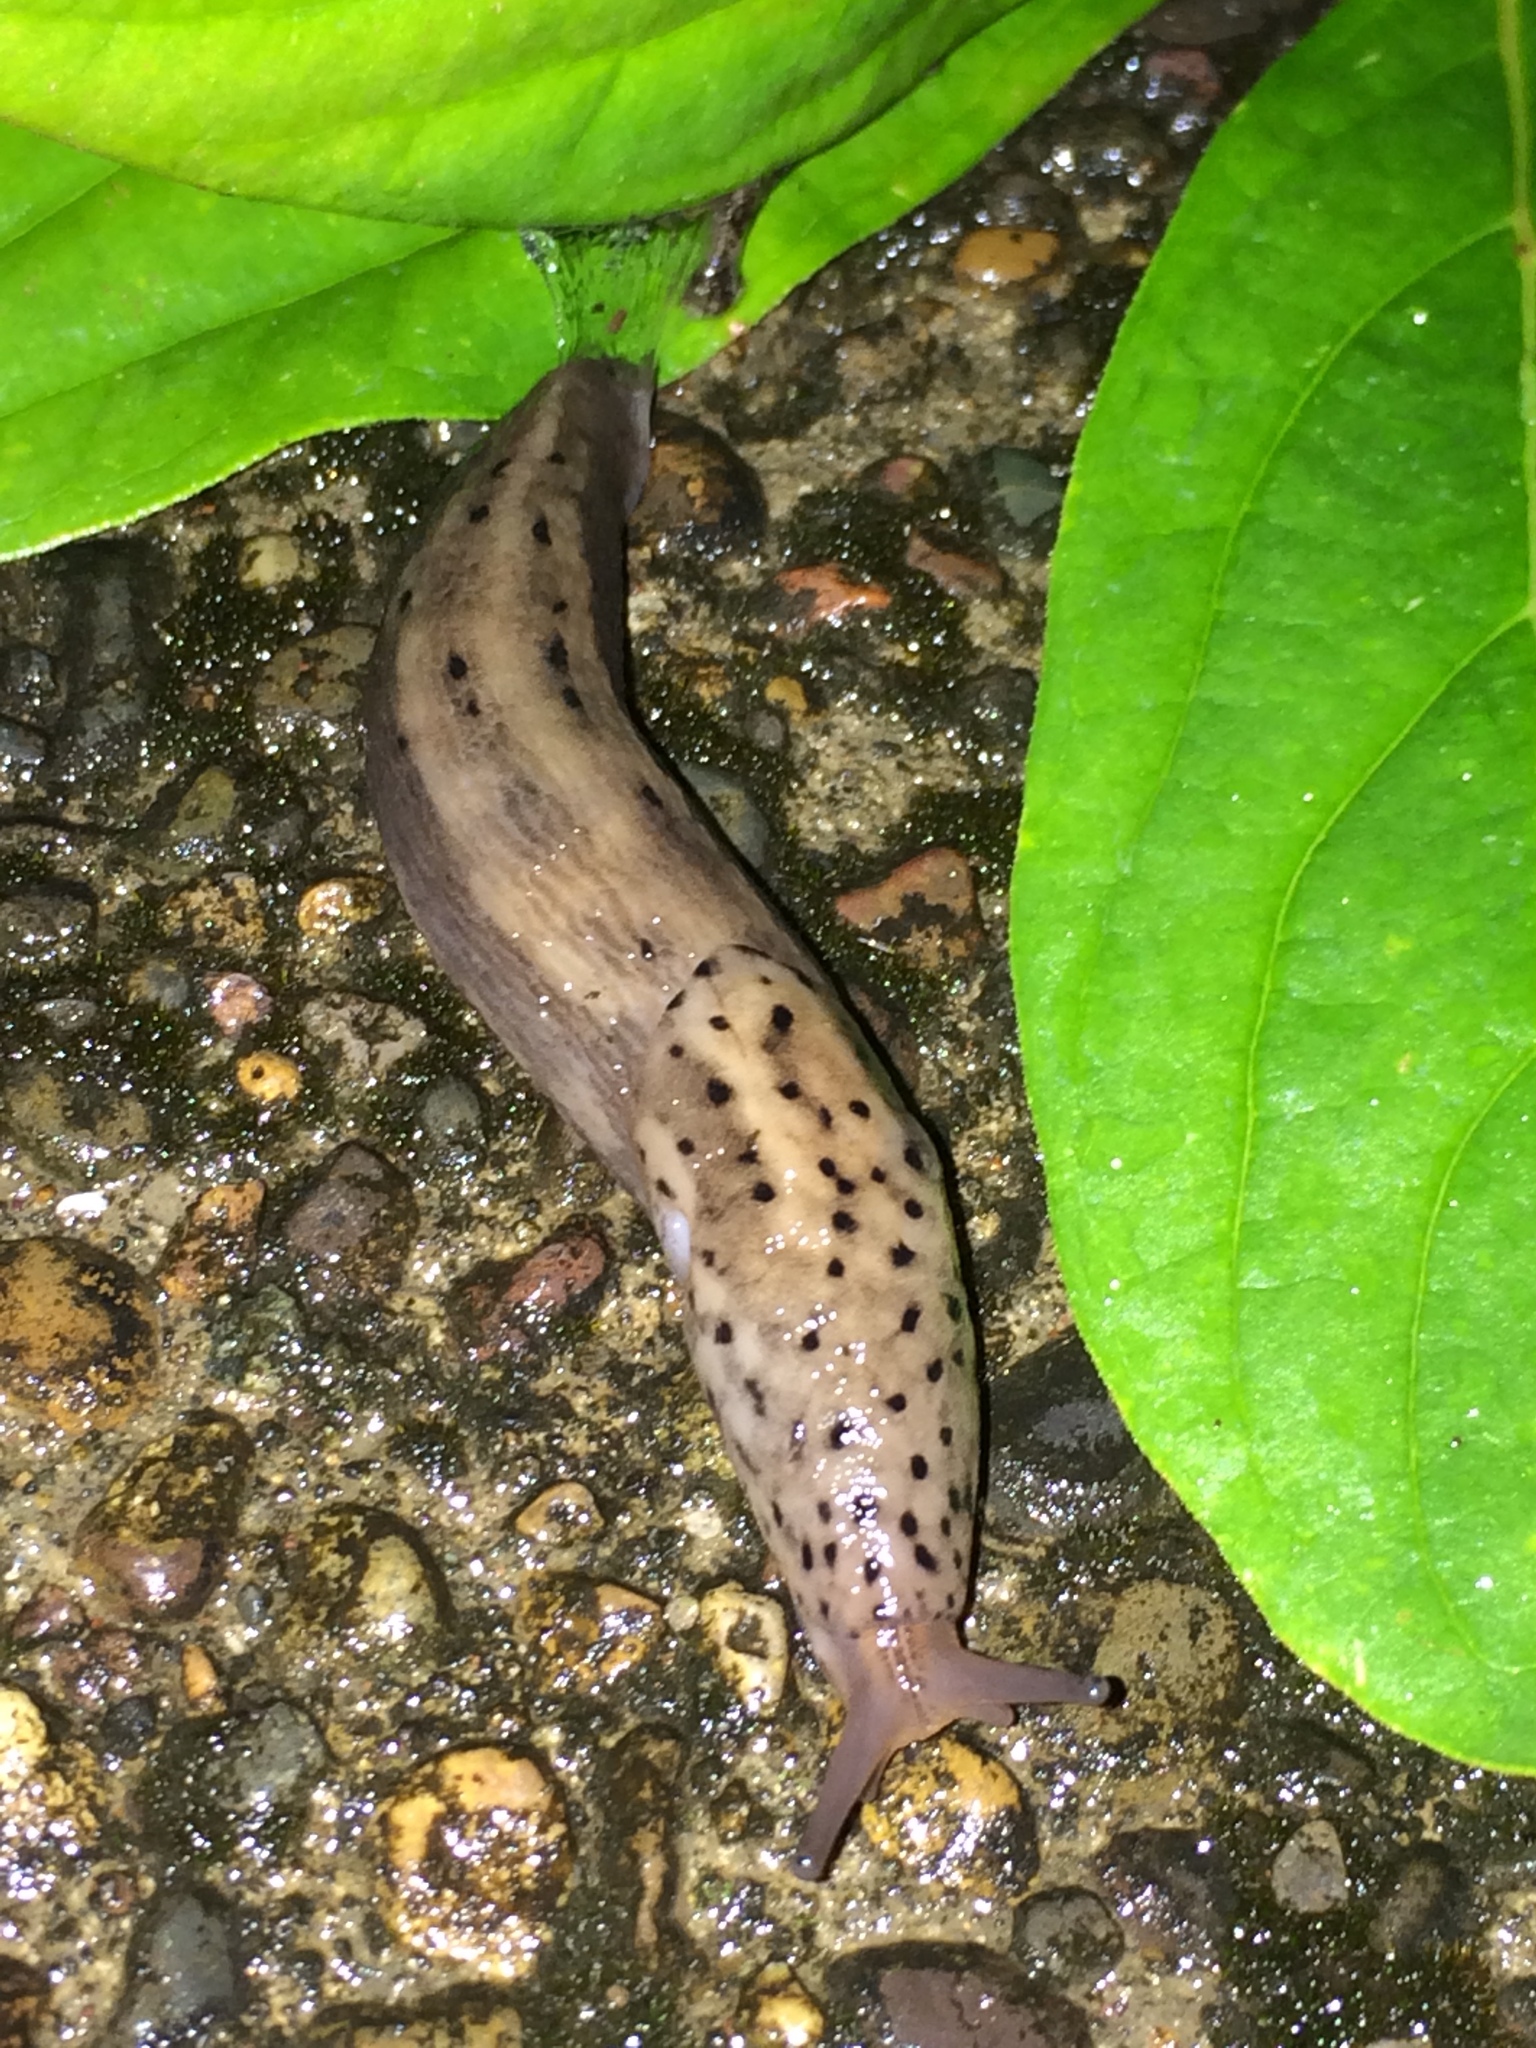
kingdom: Animalia
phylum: Mollusca
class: Gastropoda
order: Stylommatophora
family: Limacidae
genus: Limax
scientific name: Limax maximus
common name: Great grey slug
